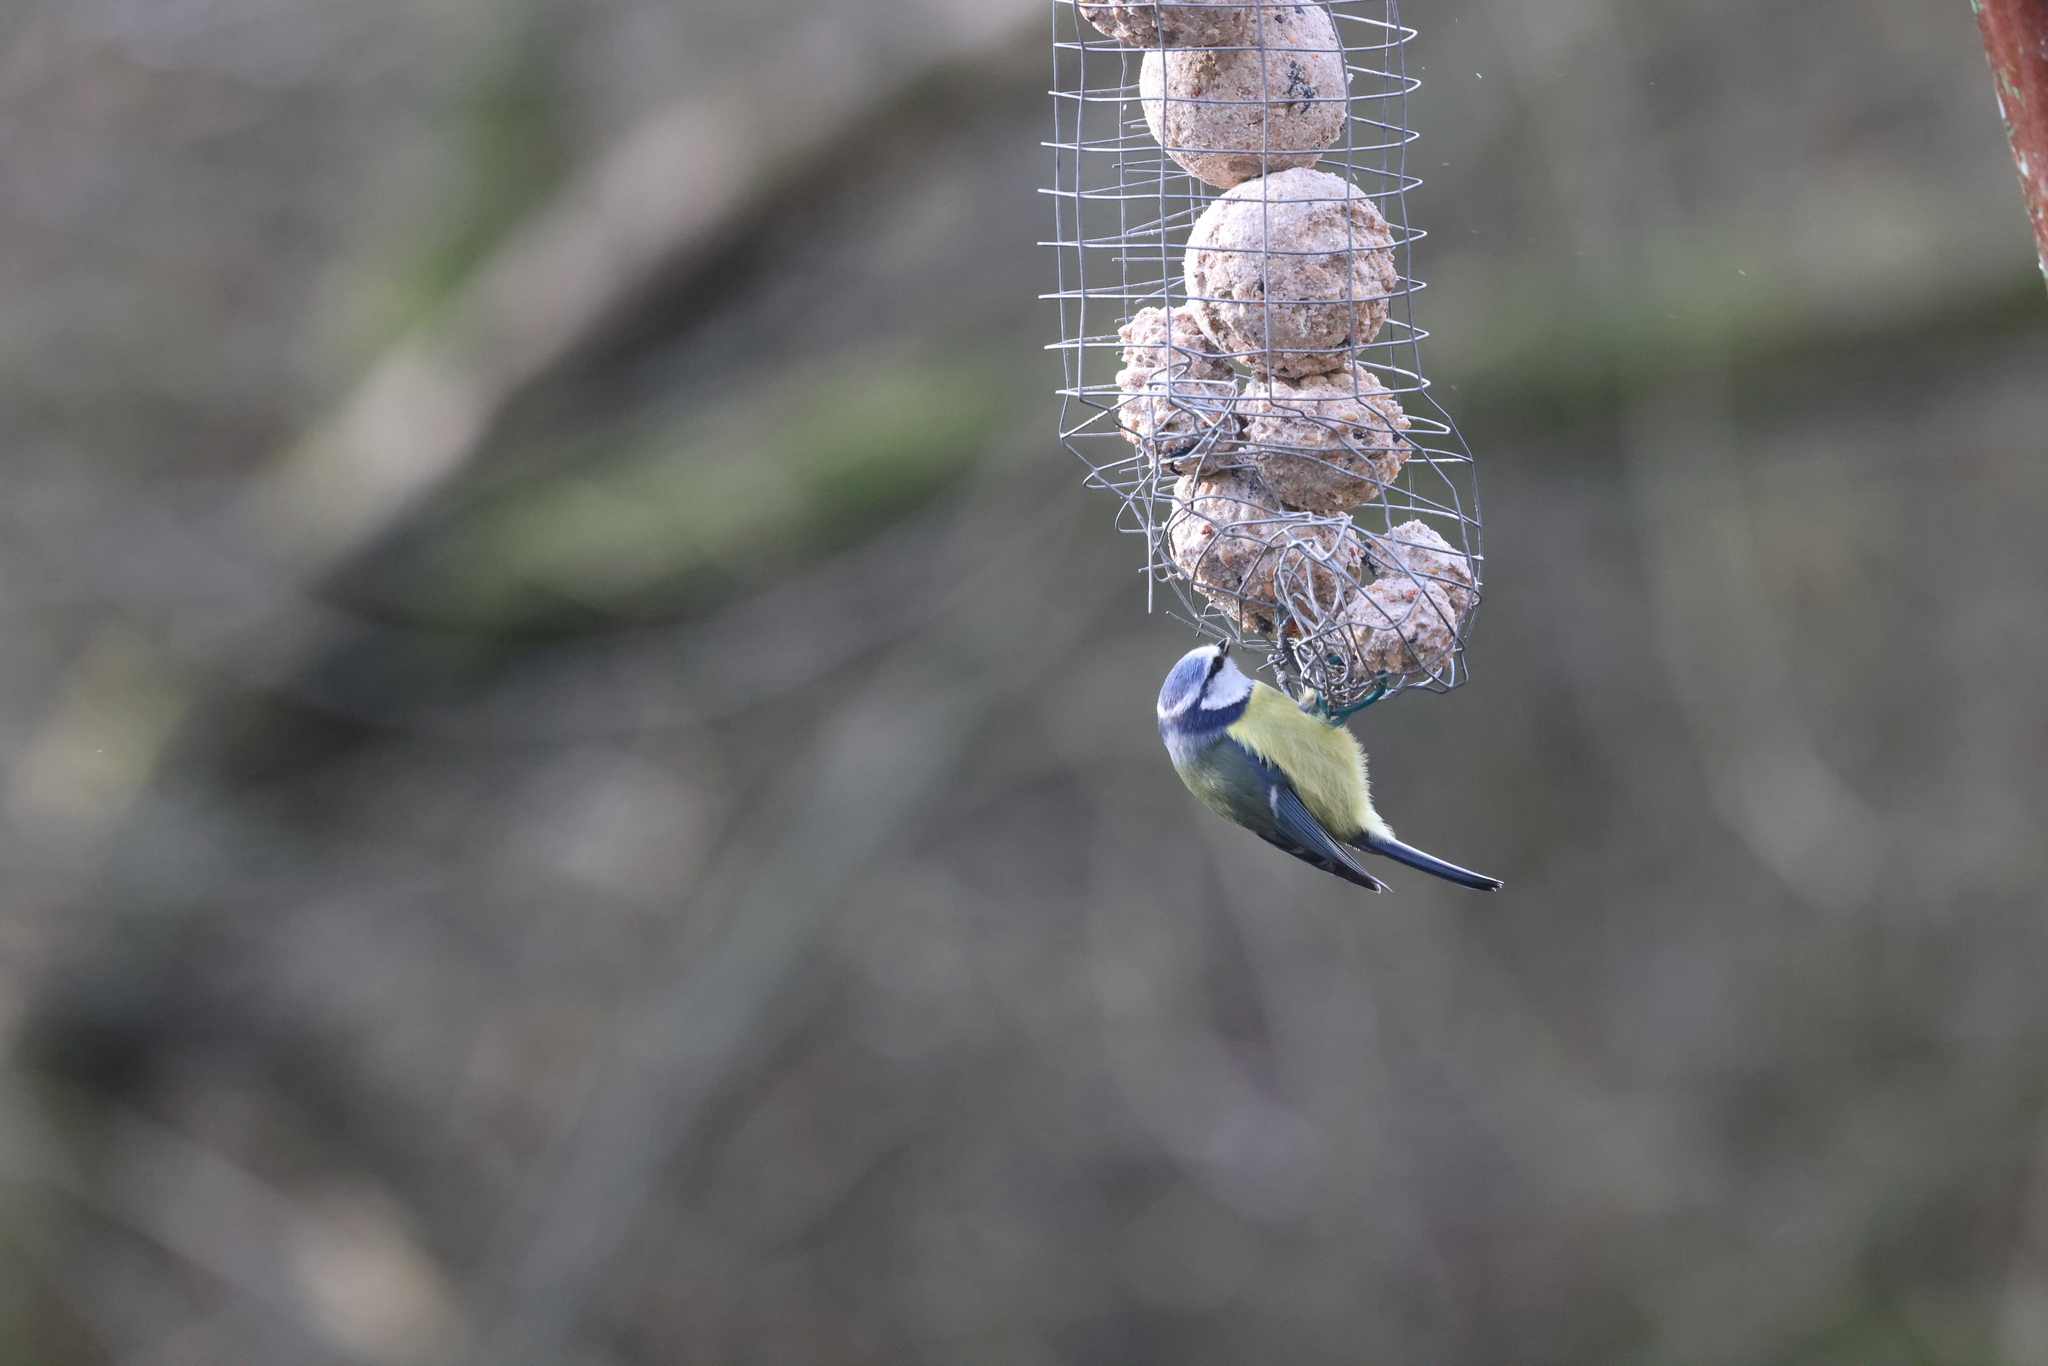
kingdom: Animalia
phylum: Chordata
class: Aves
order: Passeriformes
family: Paridae
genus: Cyanistes
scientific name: Cyanistes caeruleus
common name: Eurasian blue tit
